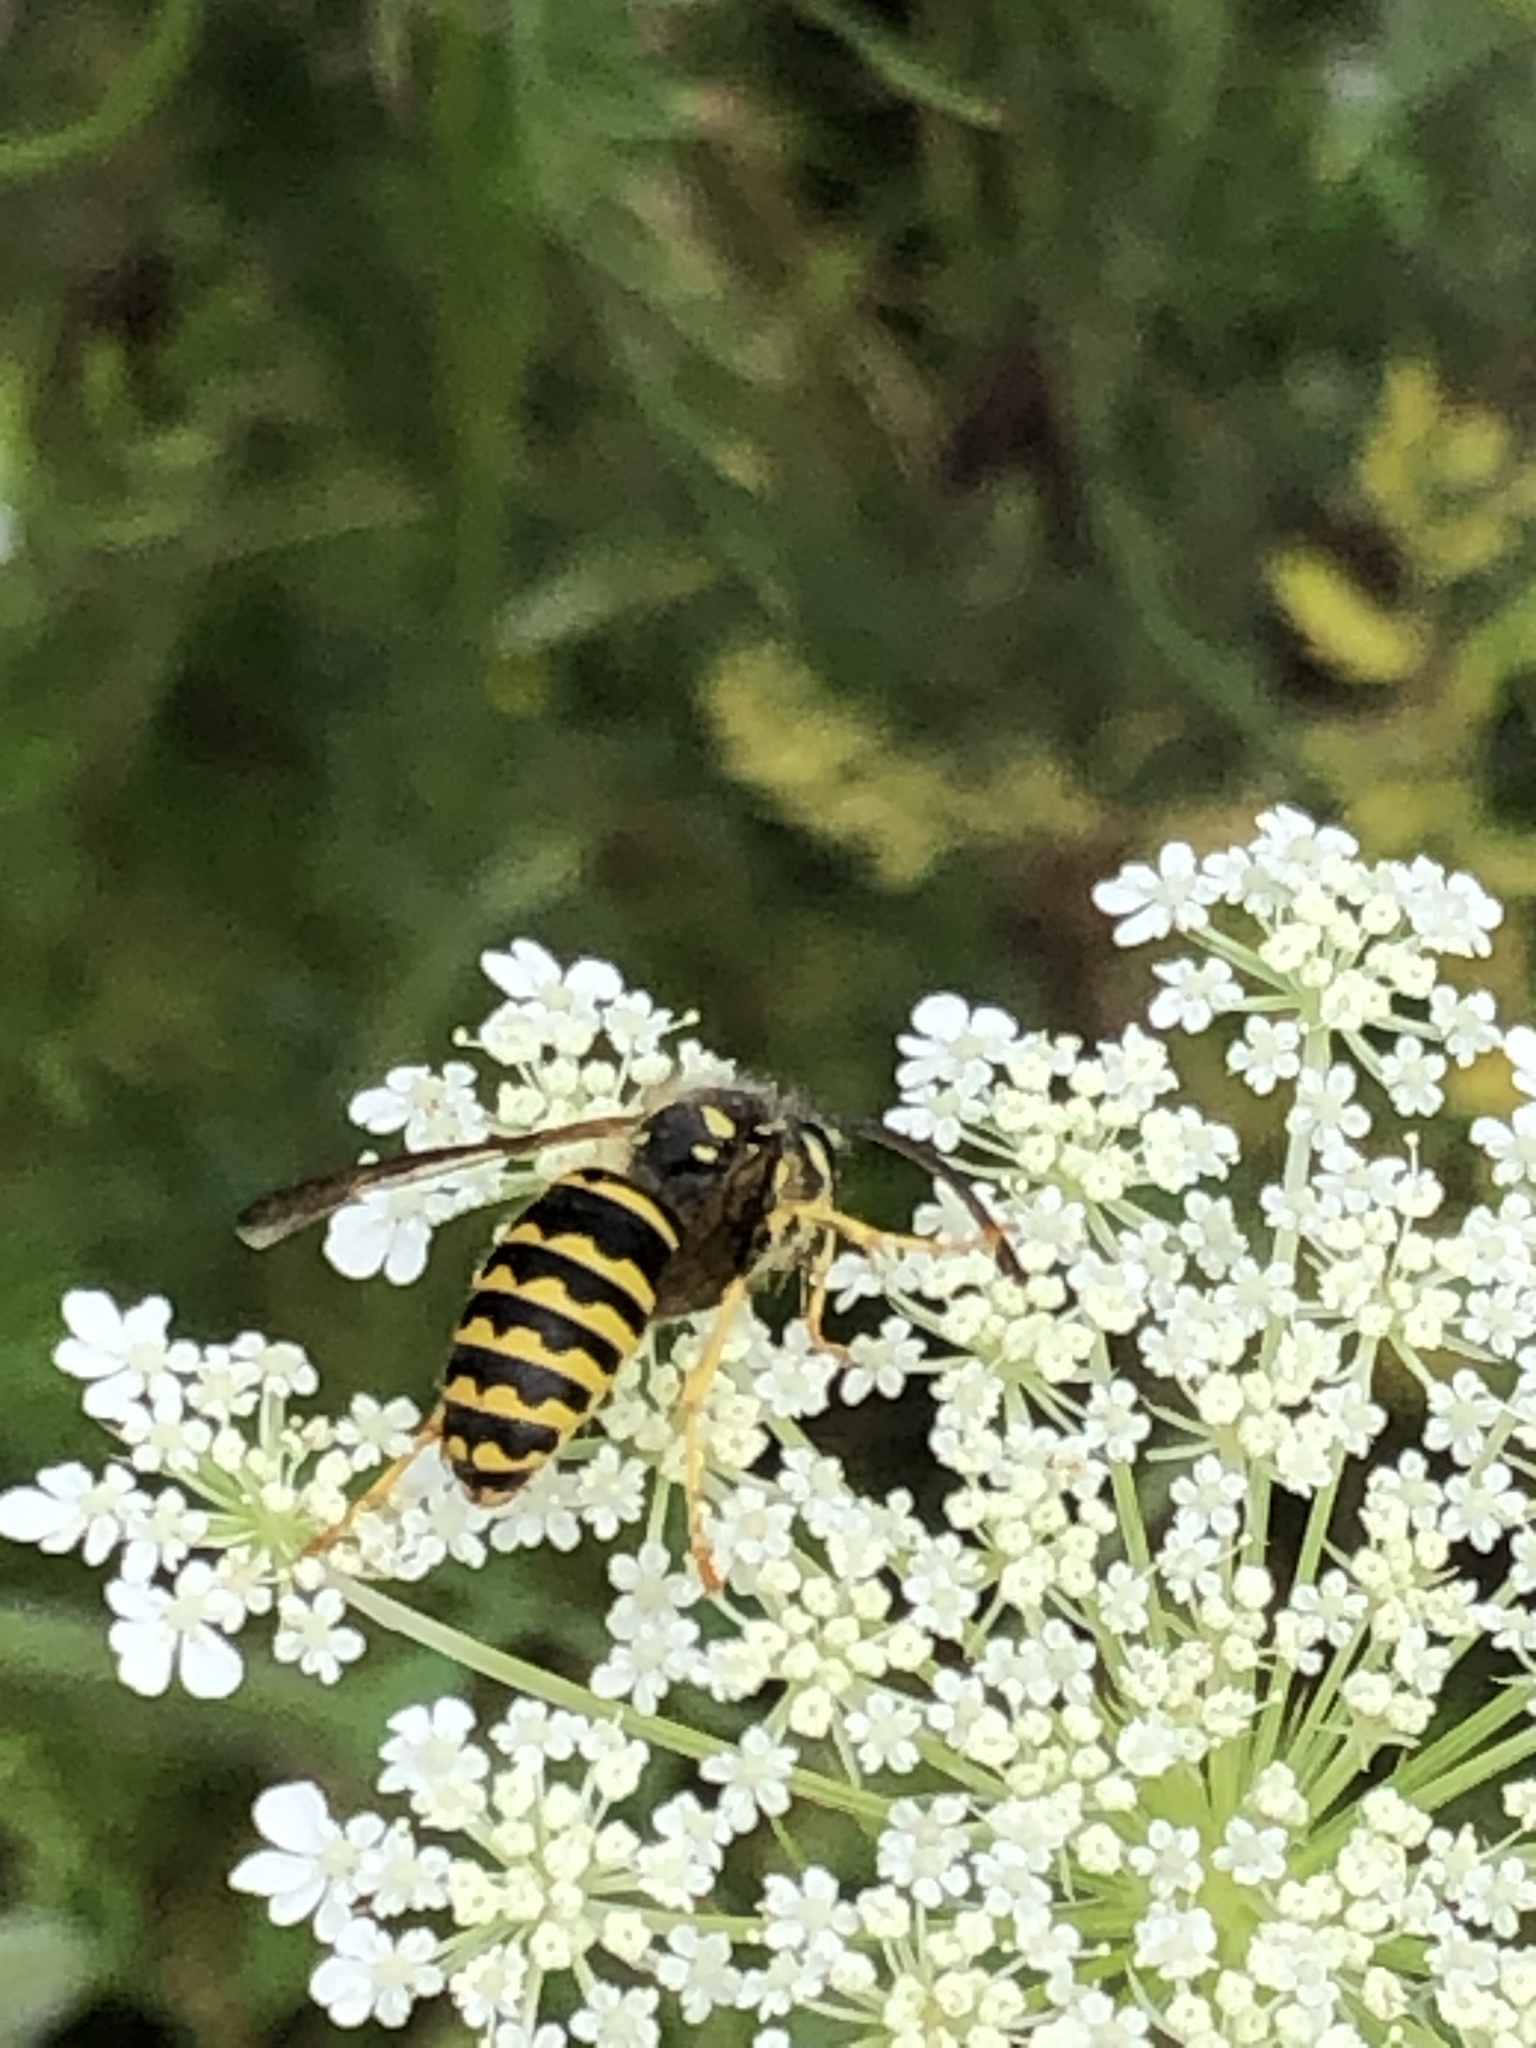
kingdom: Animalia
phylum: Arthropoda
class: Insecta
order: Hymenoptera
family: Vespidae
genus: Dolichovespula
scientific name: Dolichovespula arenaria
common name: Aerial yellowjacket
